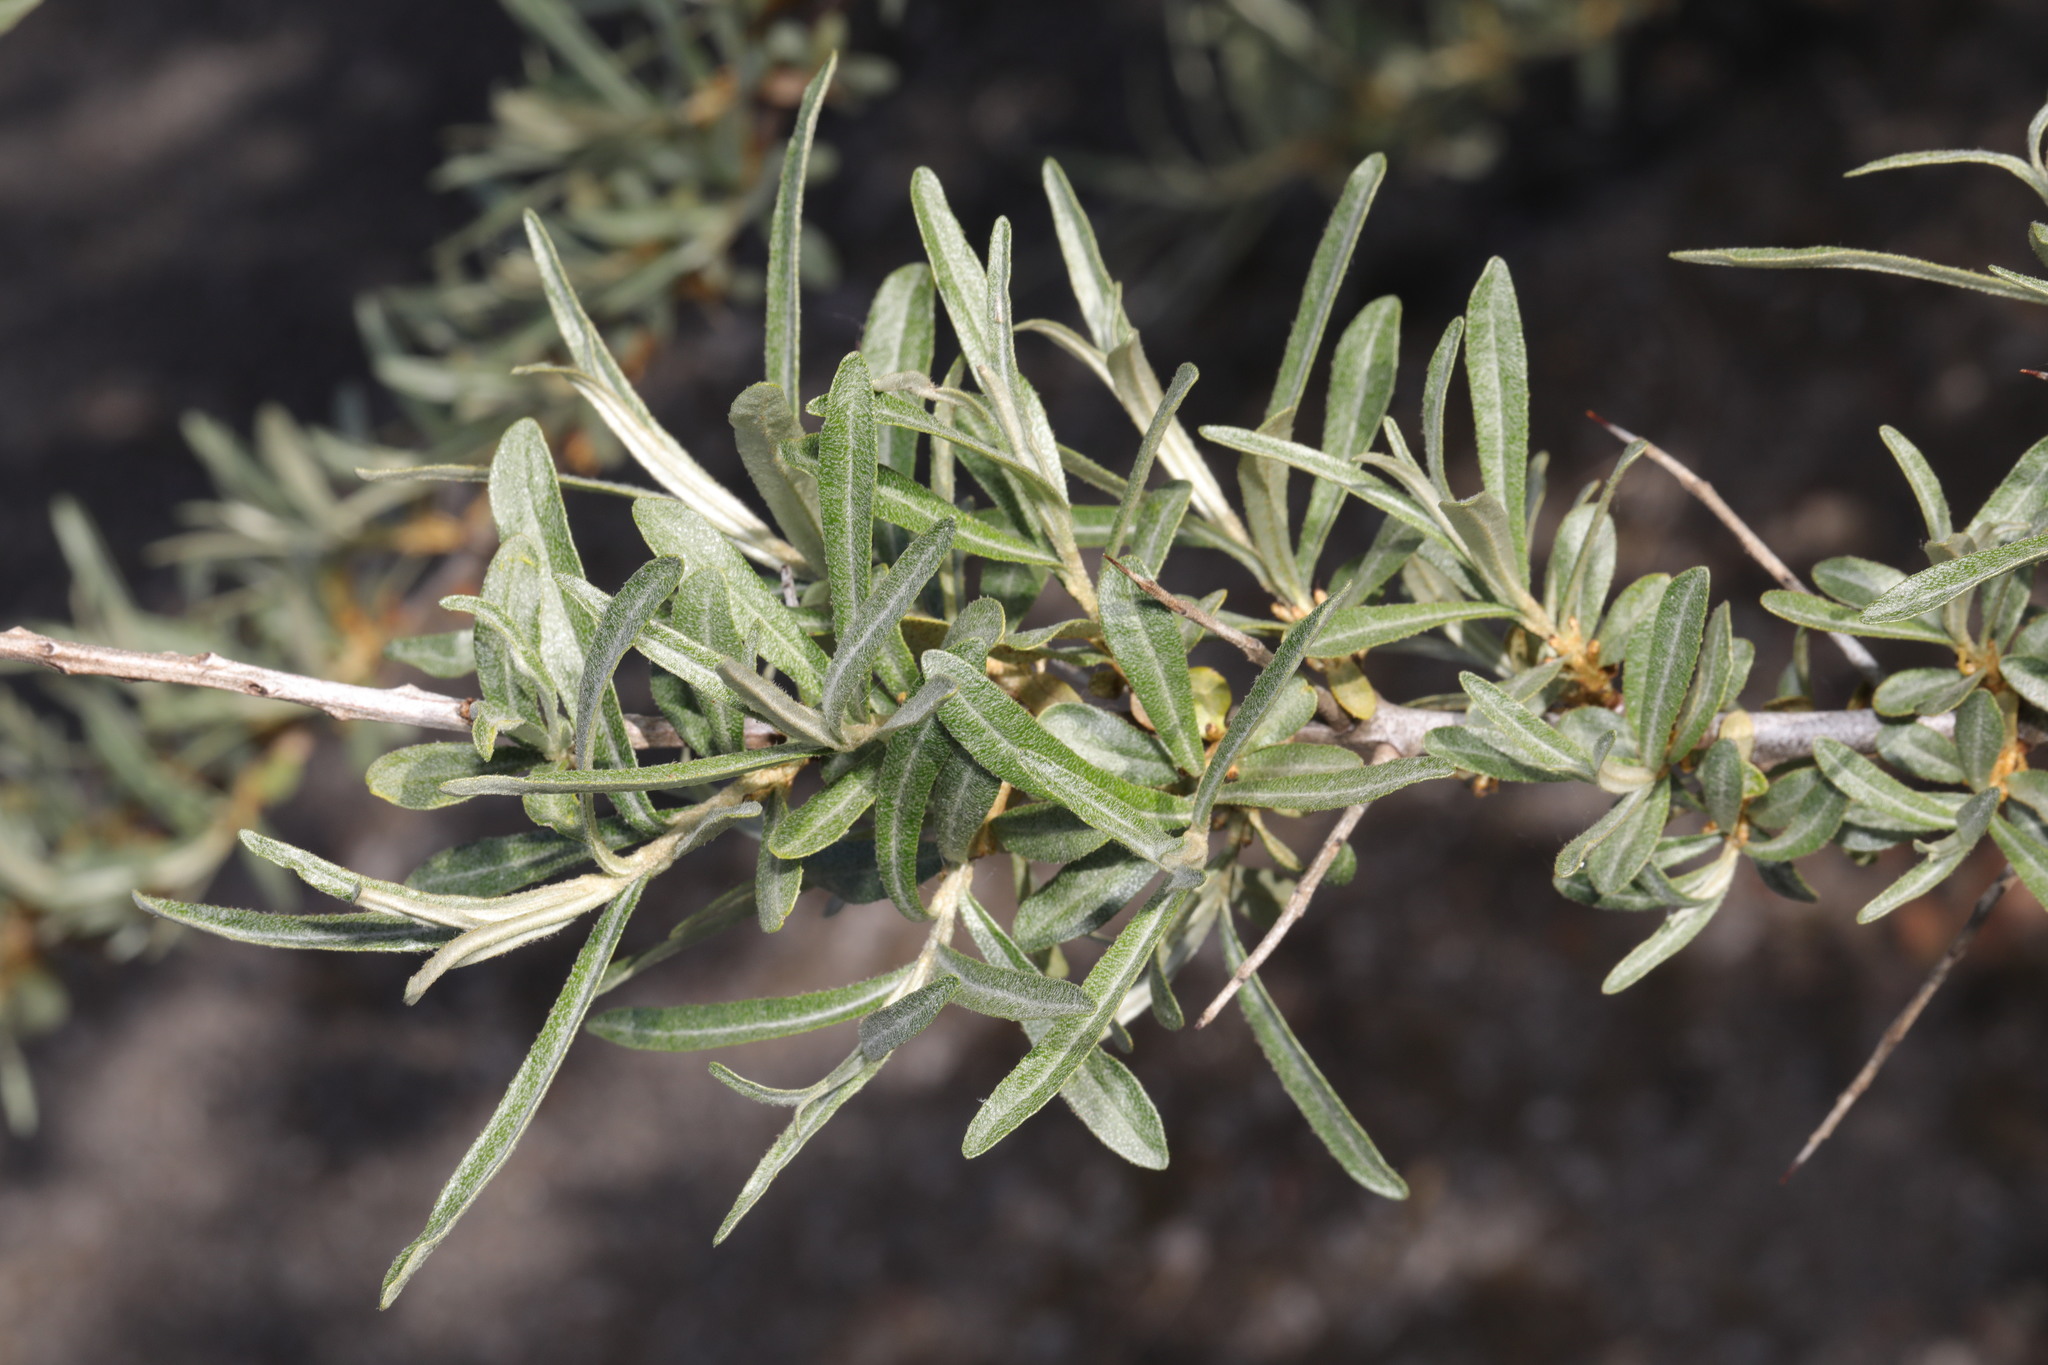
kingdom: Plantae
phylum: Tracheophyta
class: Magnoliopsida
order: Rosales
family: Elaeagnaceae
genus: Hippophae
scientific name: Hippophae rhamnoides
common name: Sea-buckthorn
